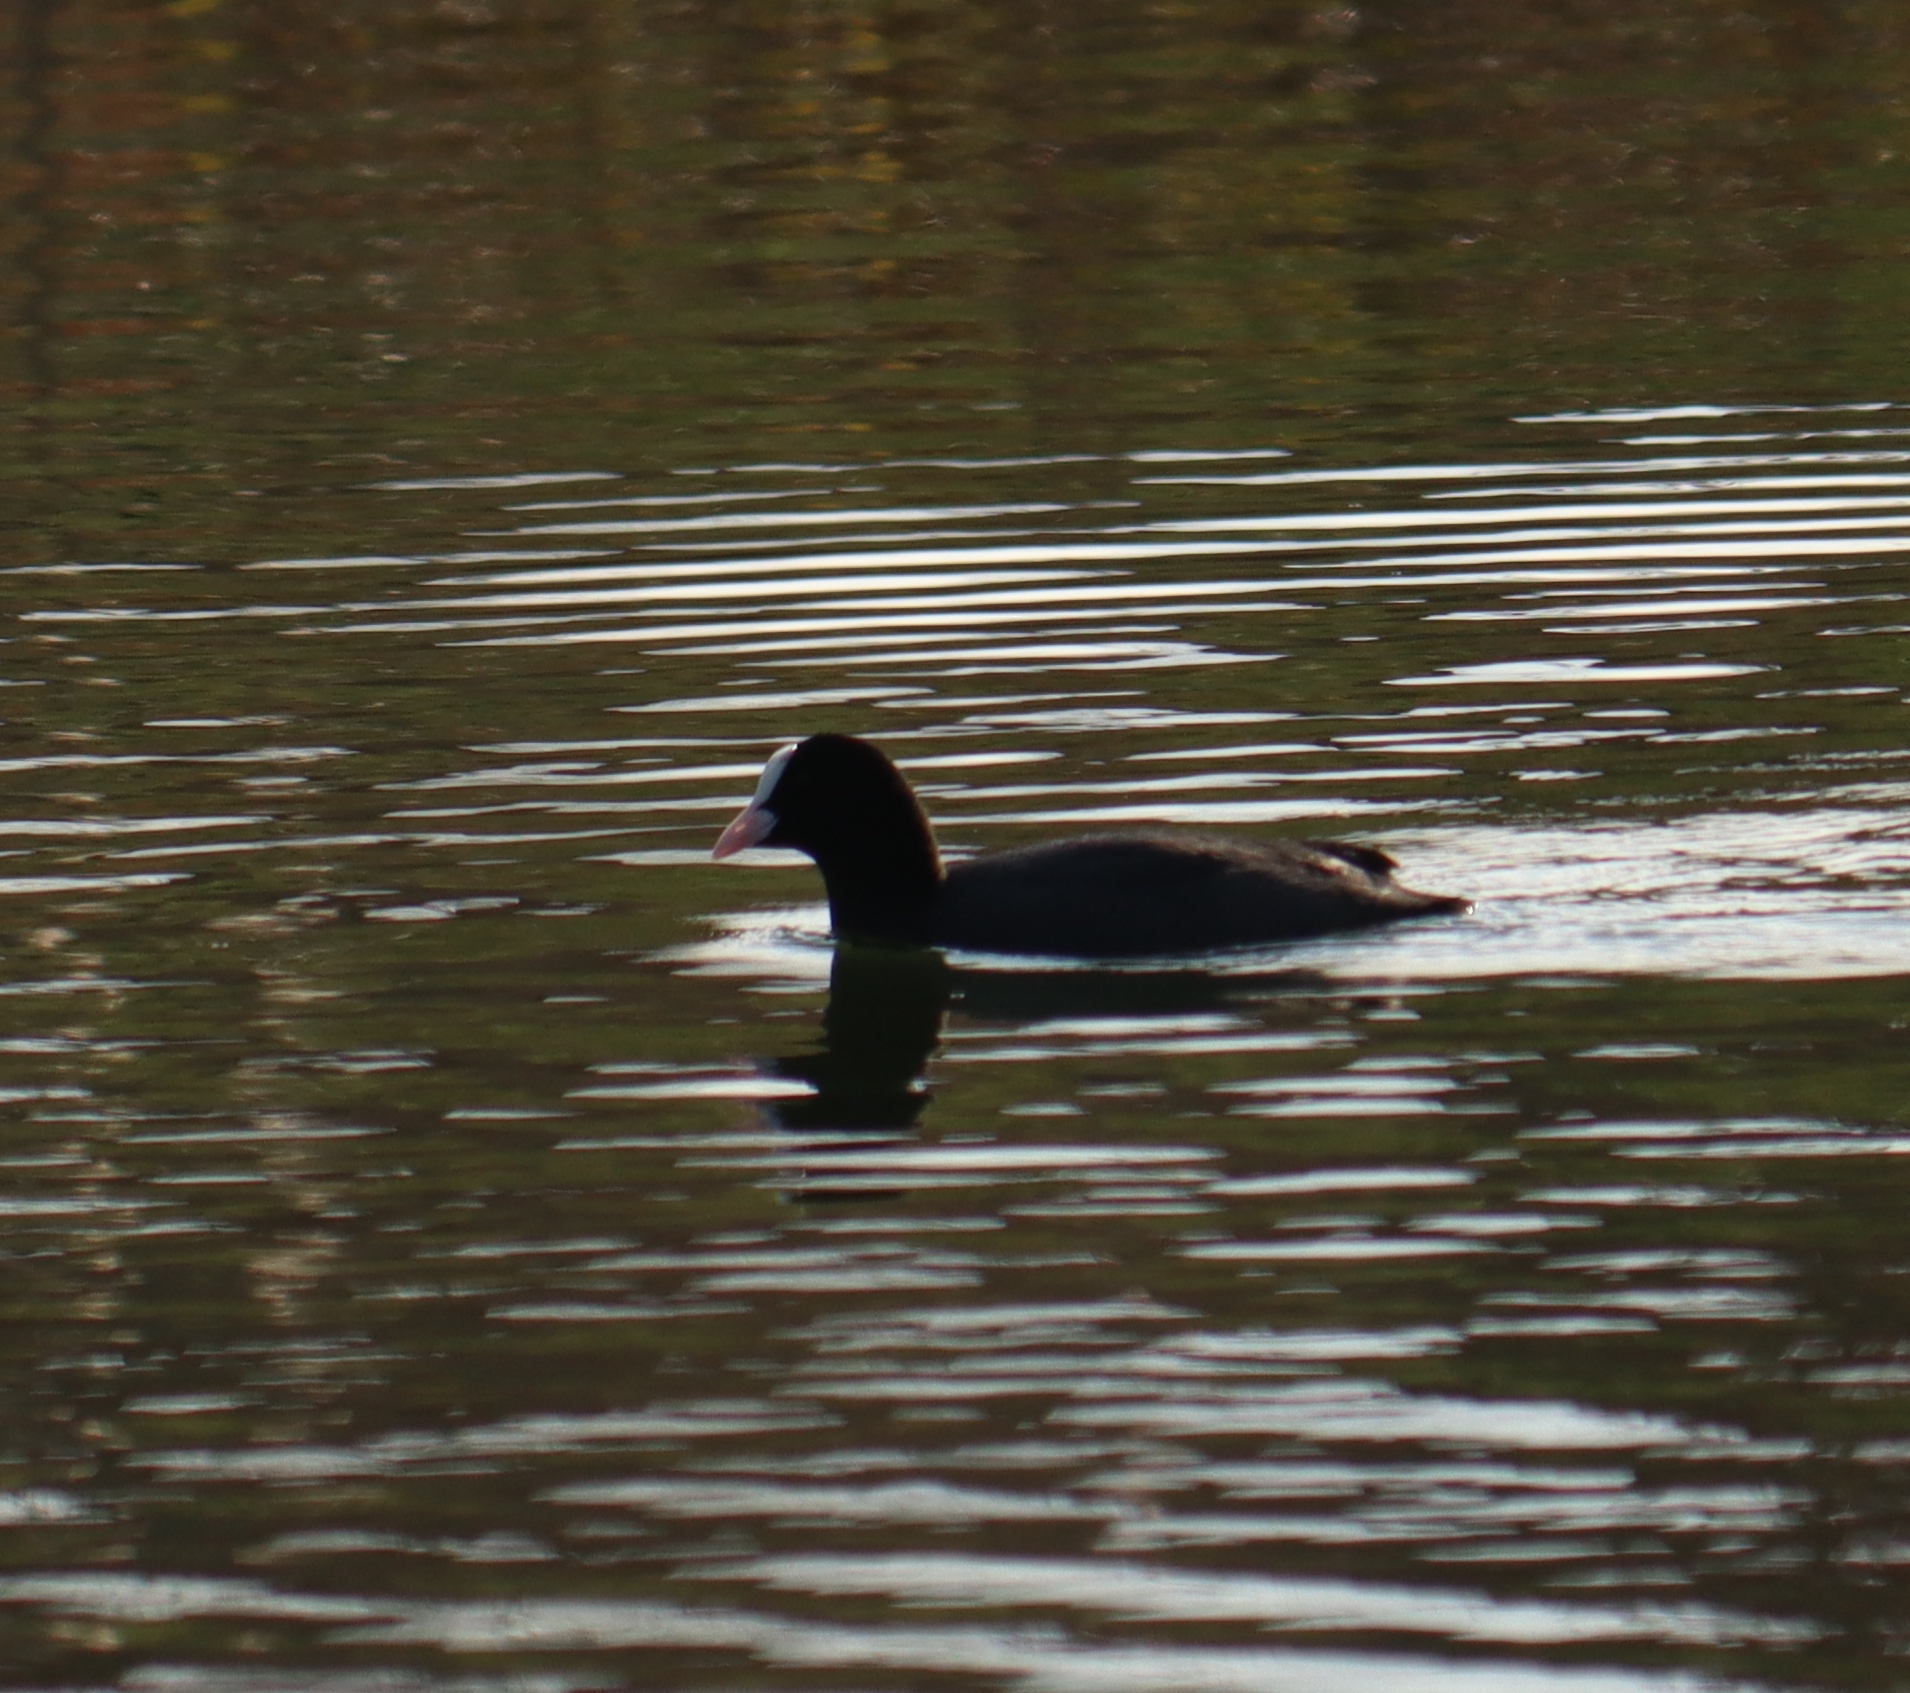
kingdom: Animalia
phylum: Chordata
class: Aves
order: Gruiformes
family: Rallidae
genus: Fulica
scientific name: Fulica atra
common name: Eurasian coot
